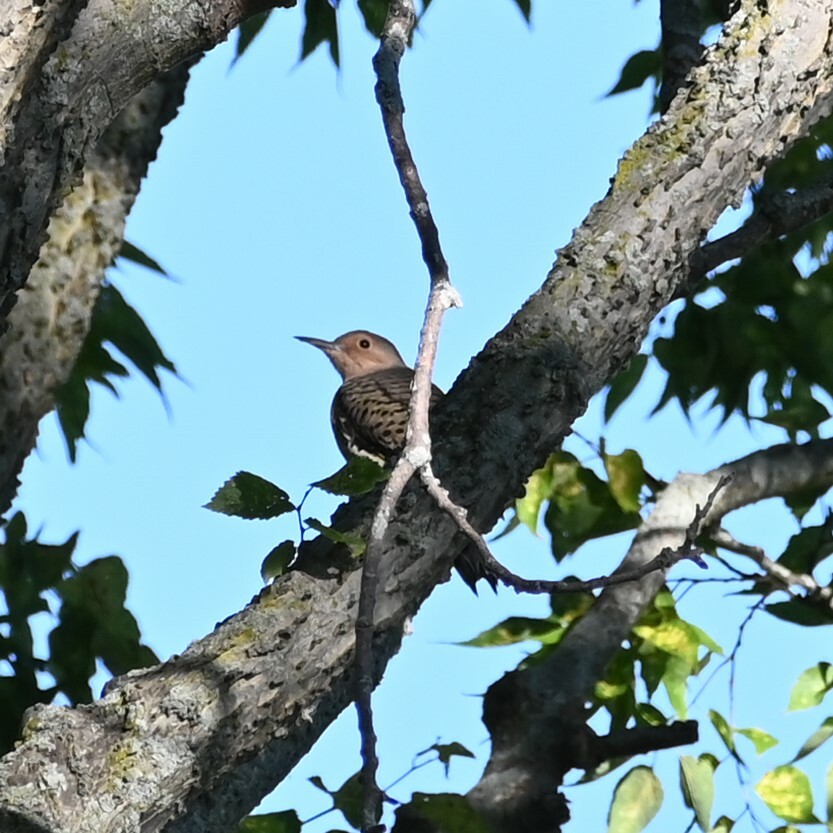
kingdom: Animalia
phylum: Chordata
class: Aves
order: Piciformes
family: Picidae
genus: Colaptes
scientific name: Colaptes auratus
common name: Northern flicker
